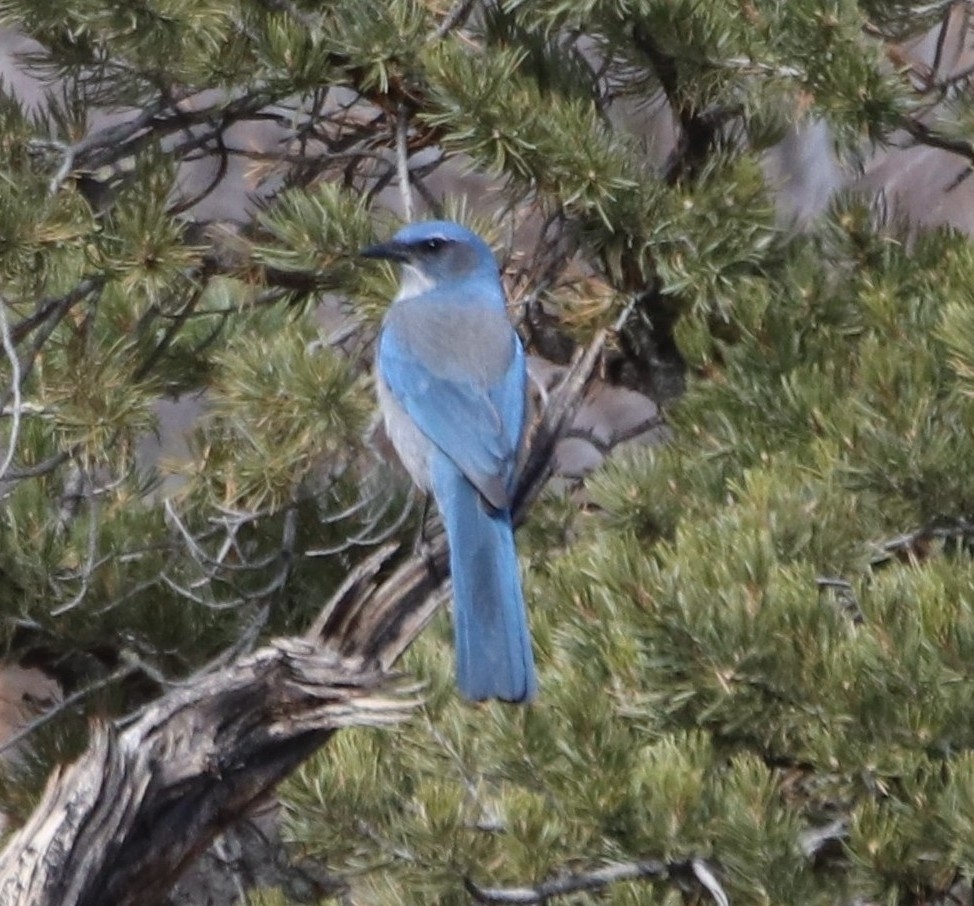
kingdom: Animalia
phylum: Chordata
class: Aves
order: Passeriformes
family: Corvidae
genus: Aphelocoma
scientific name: Aphelocoma woodhouseii
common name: Woodhouse's scrub-jay
